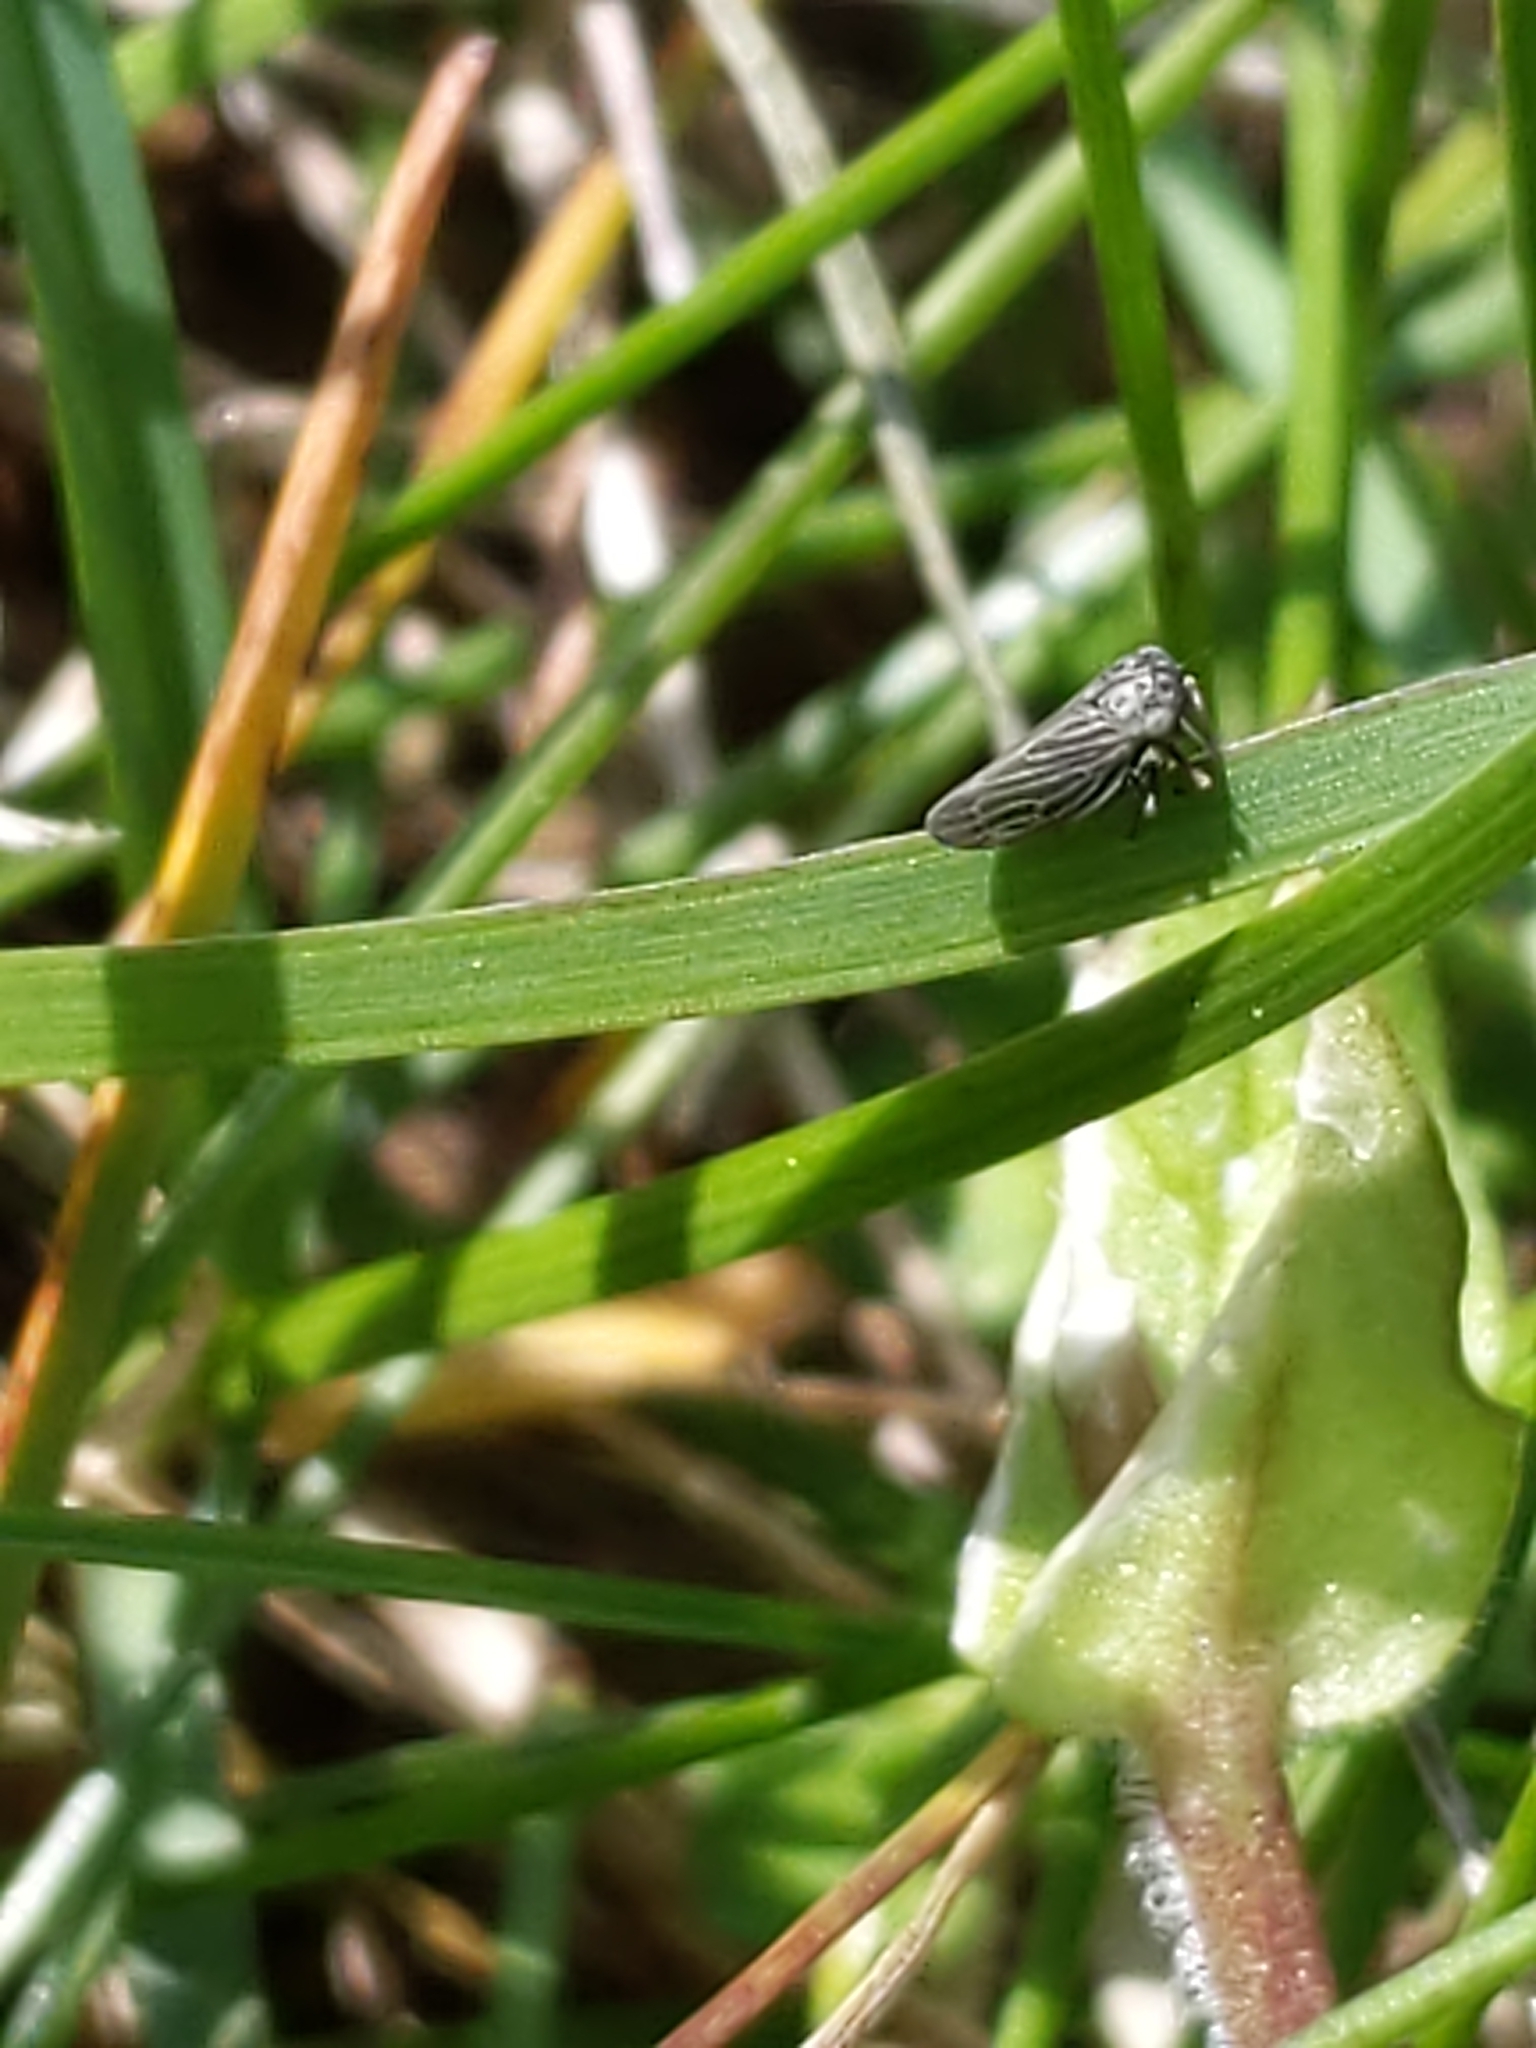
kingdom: Animalia
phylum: Arthropoda
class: Insecta
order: Hemiptera
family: Cicadellidae
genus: Agallia
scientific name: Agallia
